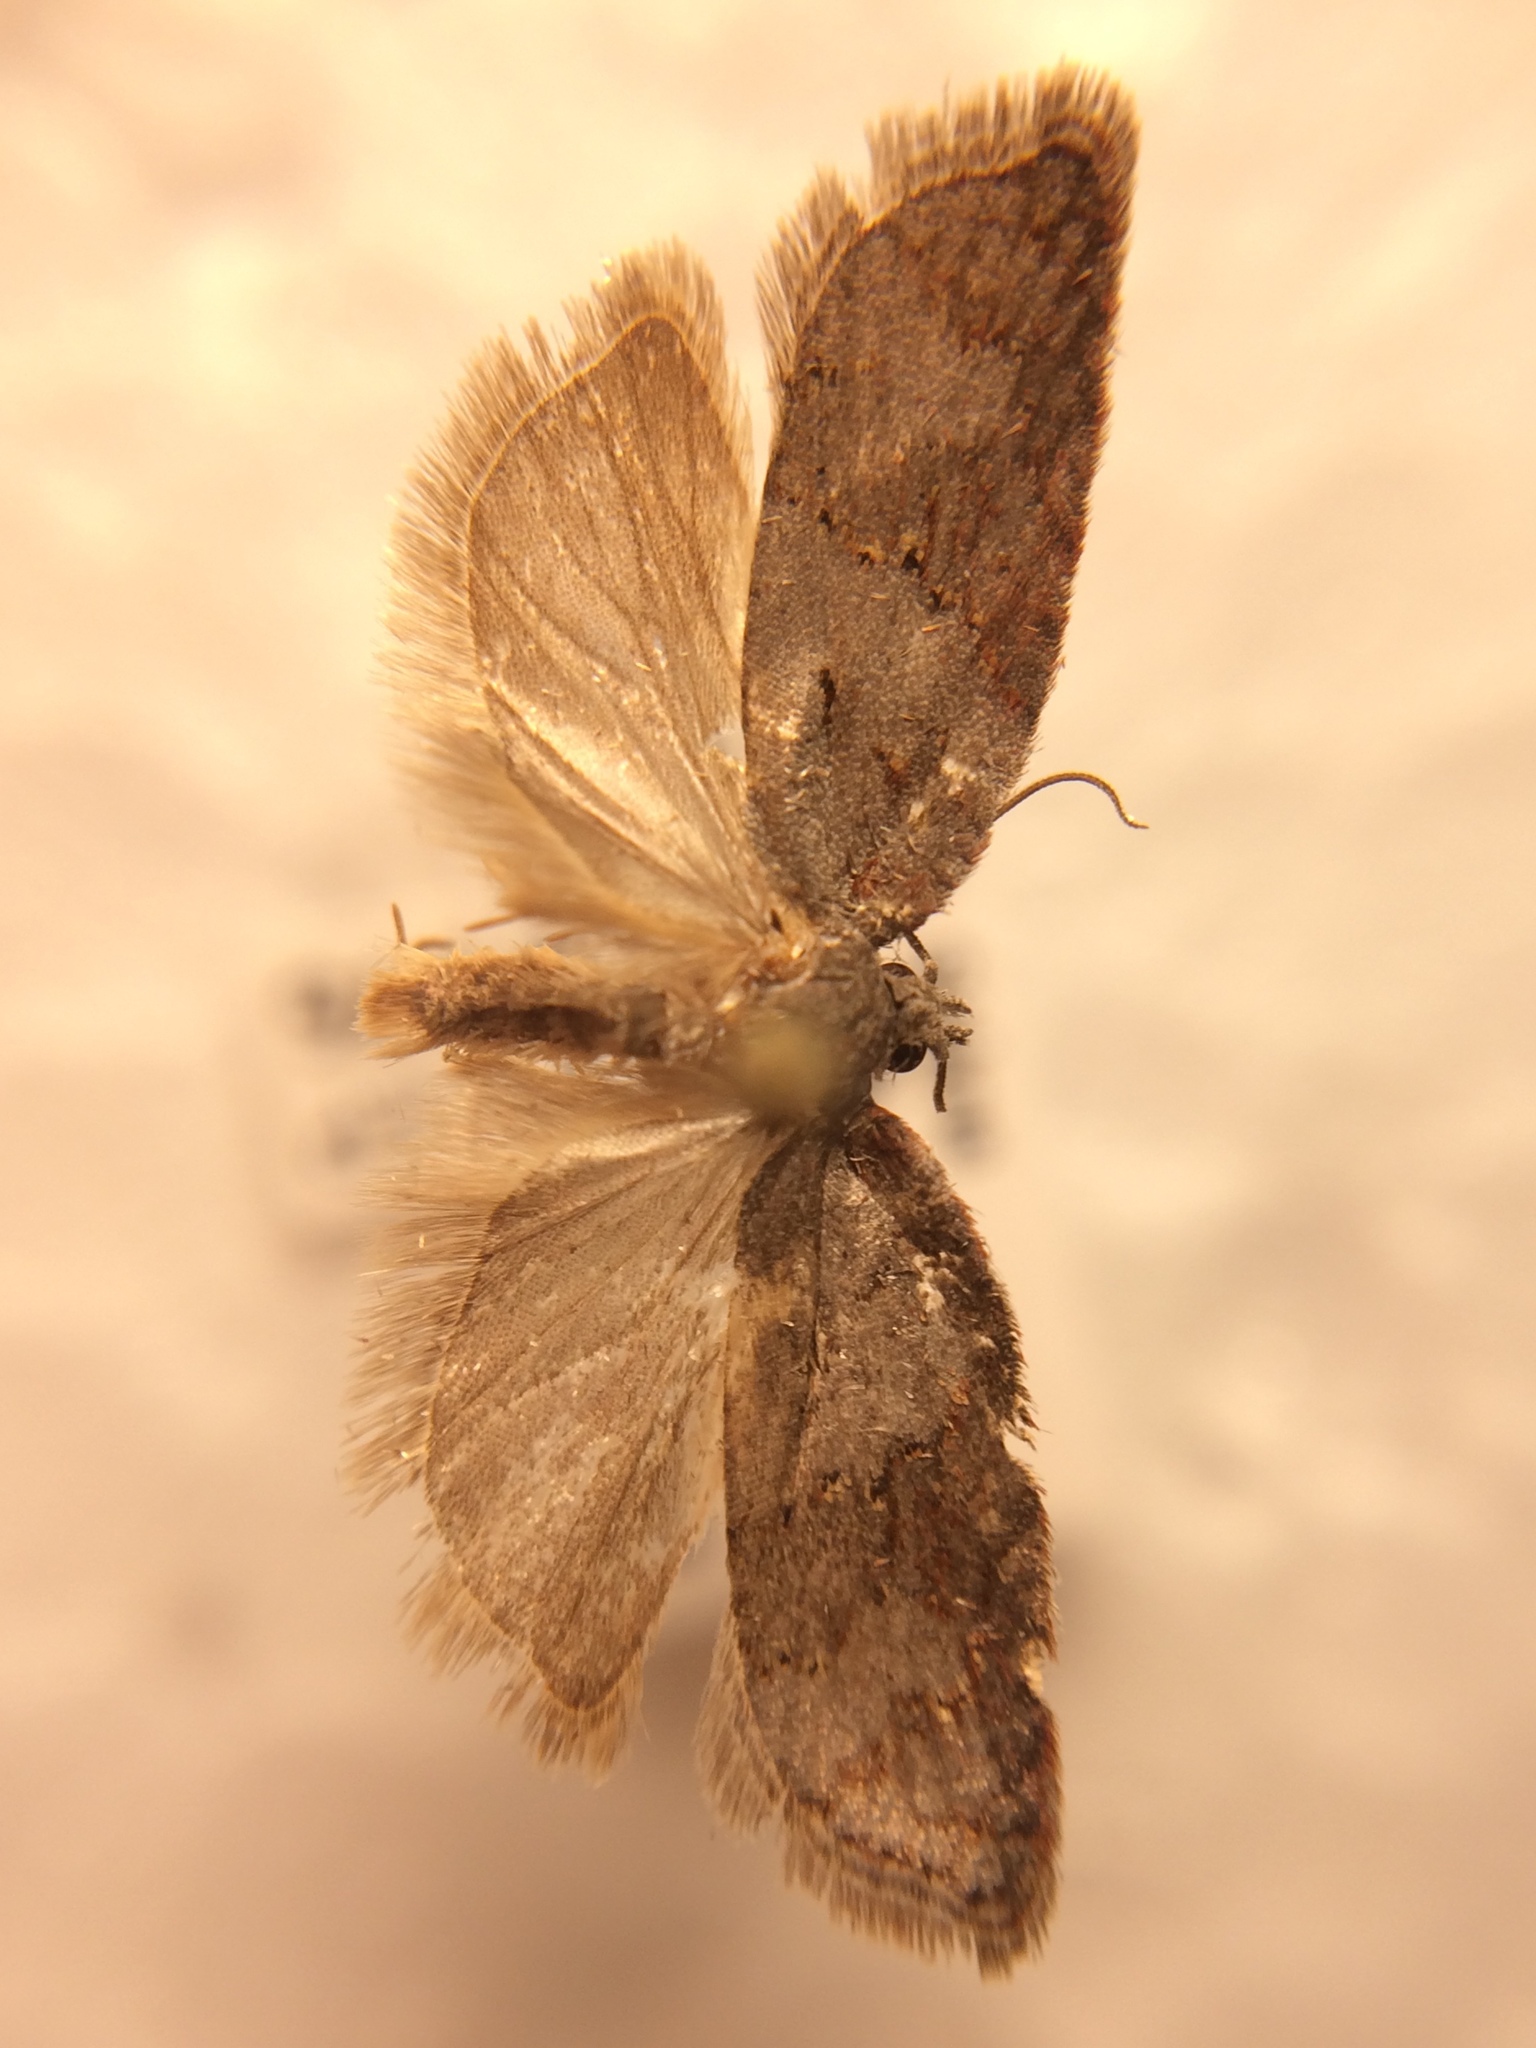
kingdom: Animalia
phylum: Arthropoda
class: Insecta
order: Lepidoptera
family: Tortricidae
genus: Acleris
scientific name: Acleris sparsana
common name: Ashy button
